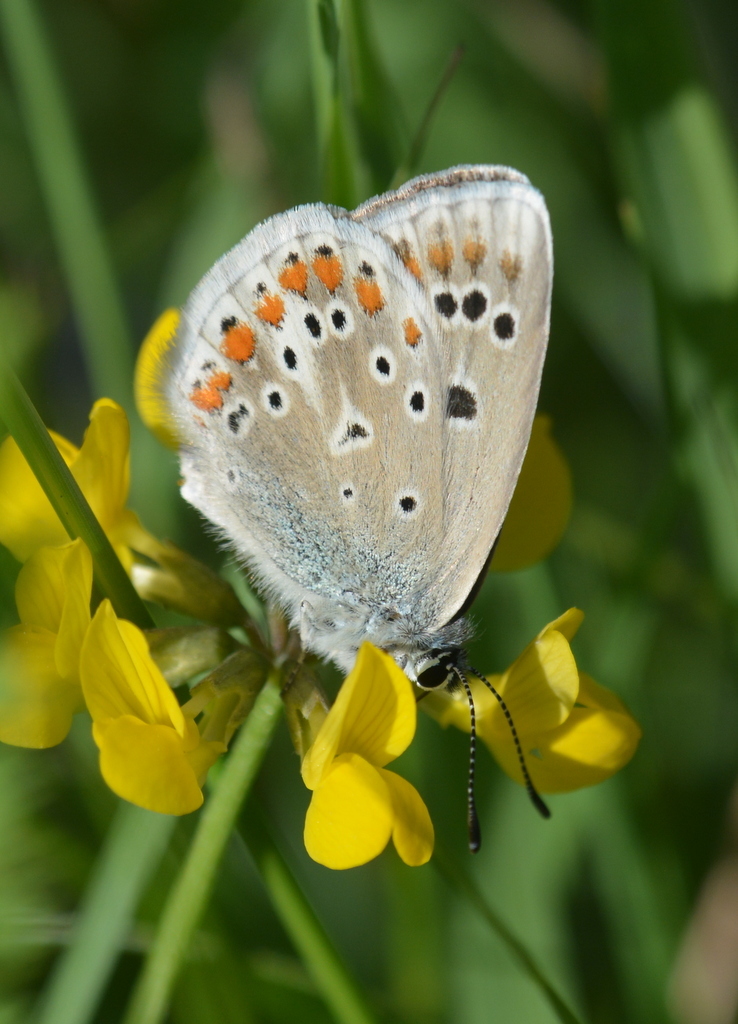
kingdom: Animalia
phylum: Arthropoda
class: Insecta
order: Lepidoptera
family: Lycaenidae
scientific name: Lycaenidae
